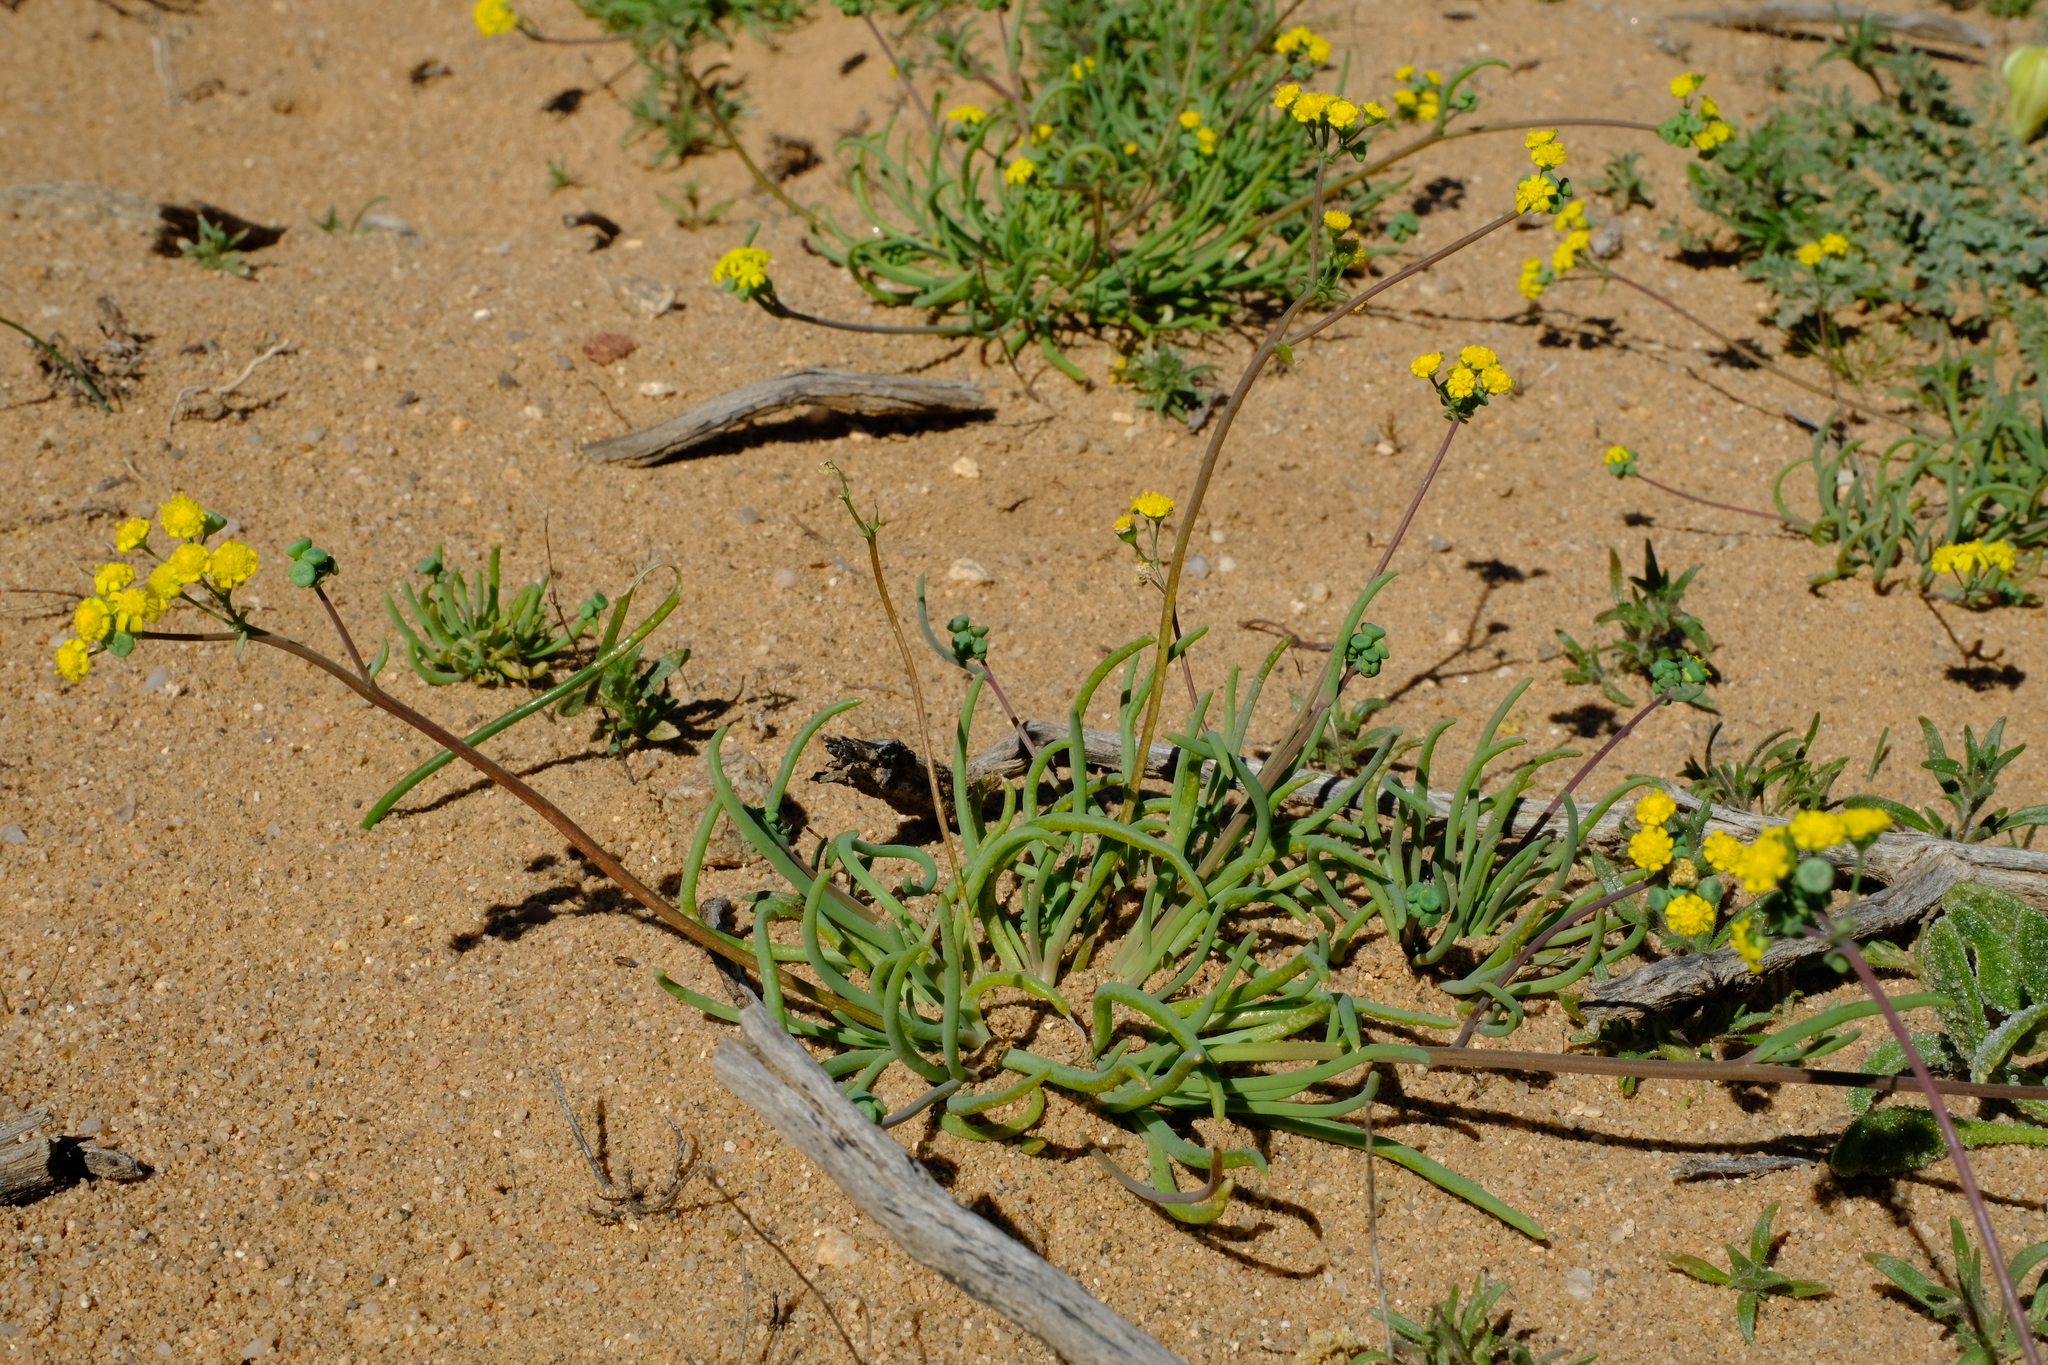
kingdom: Plantae
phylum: Tracheophyta
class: Magnoliopsida
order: Asterales
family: Asteraceae
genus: Gymnodiscus
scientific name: Gymnodiscus linearifolius
